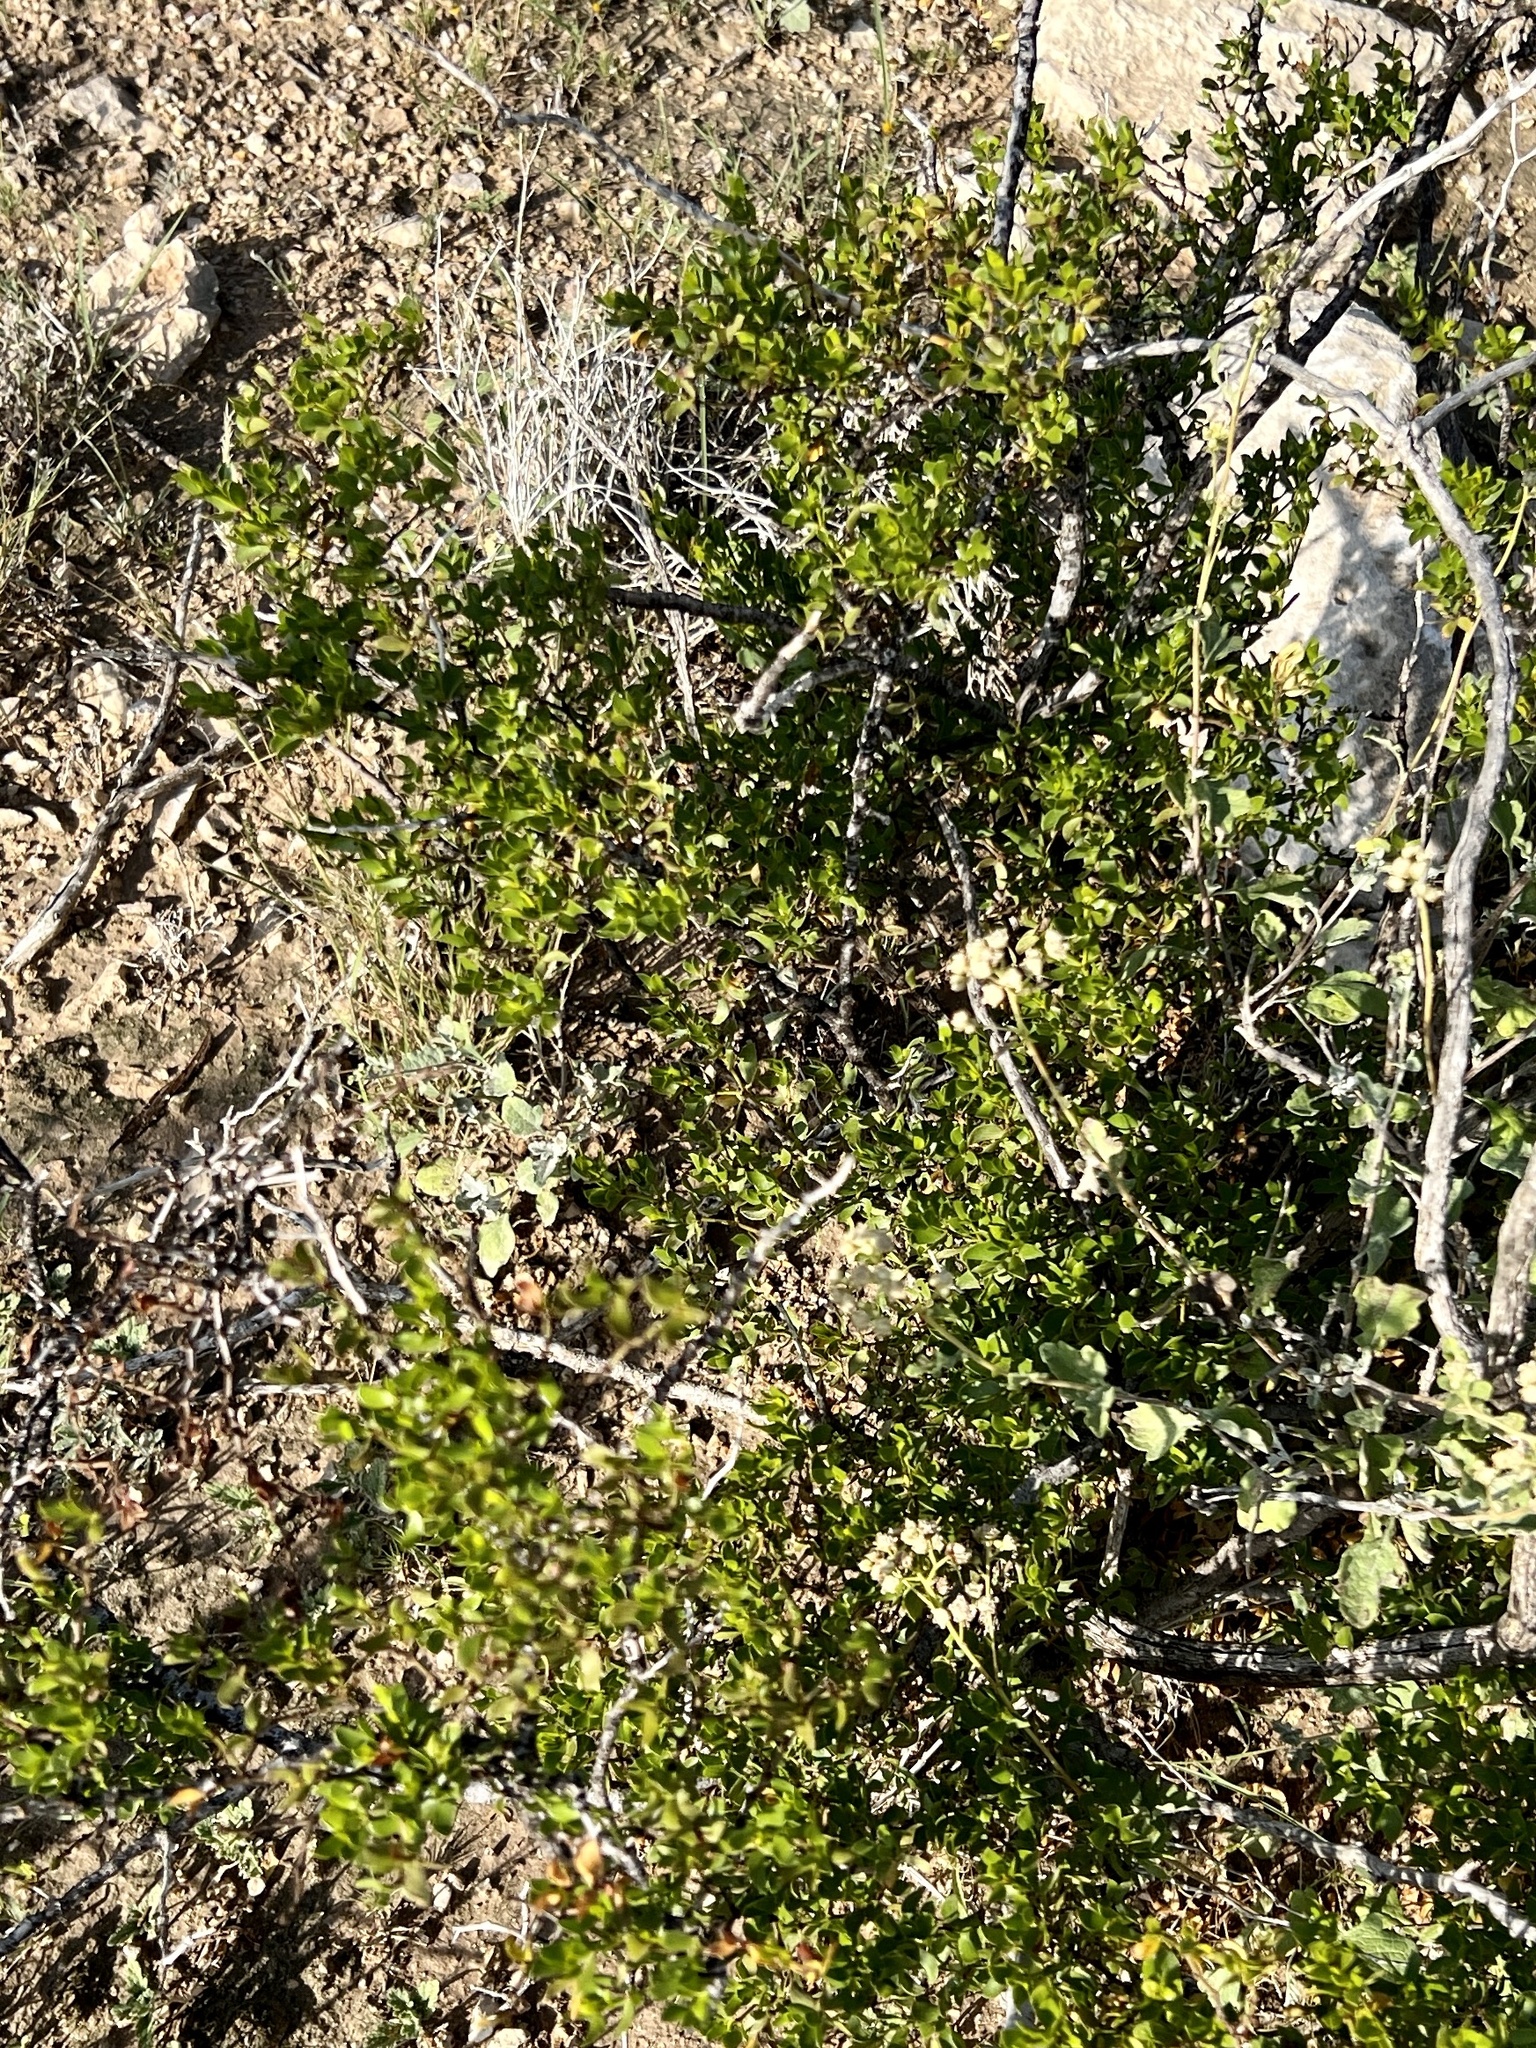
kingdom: Plantae
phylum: Tracheophyta
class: Magnoliopsida
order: Zygophyllales
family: Zygophyllaceae
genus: Larrea
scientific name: Larrea tridentata
